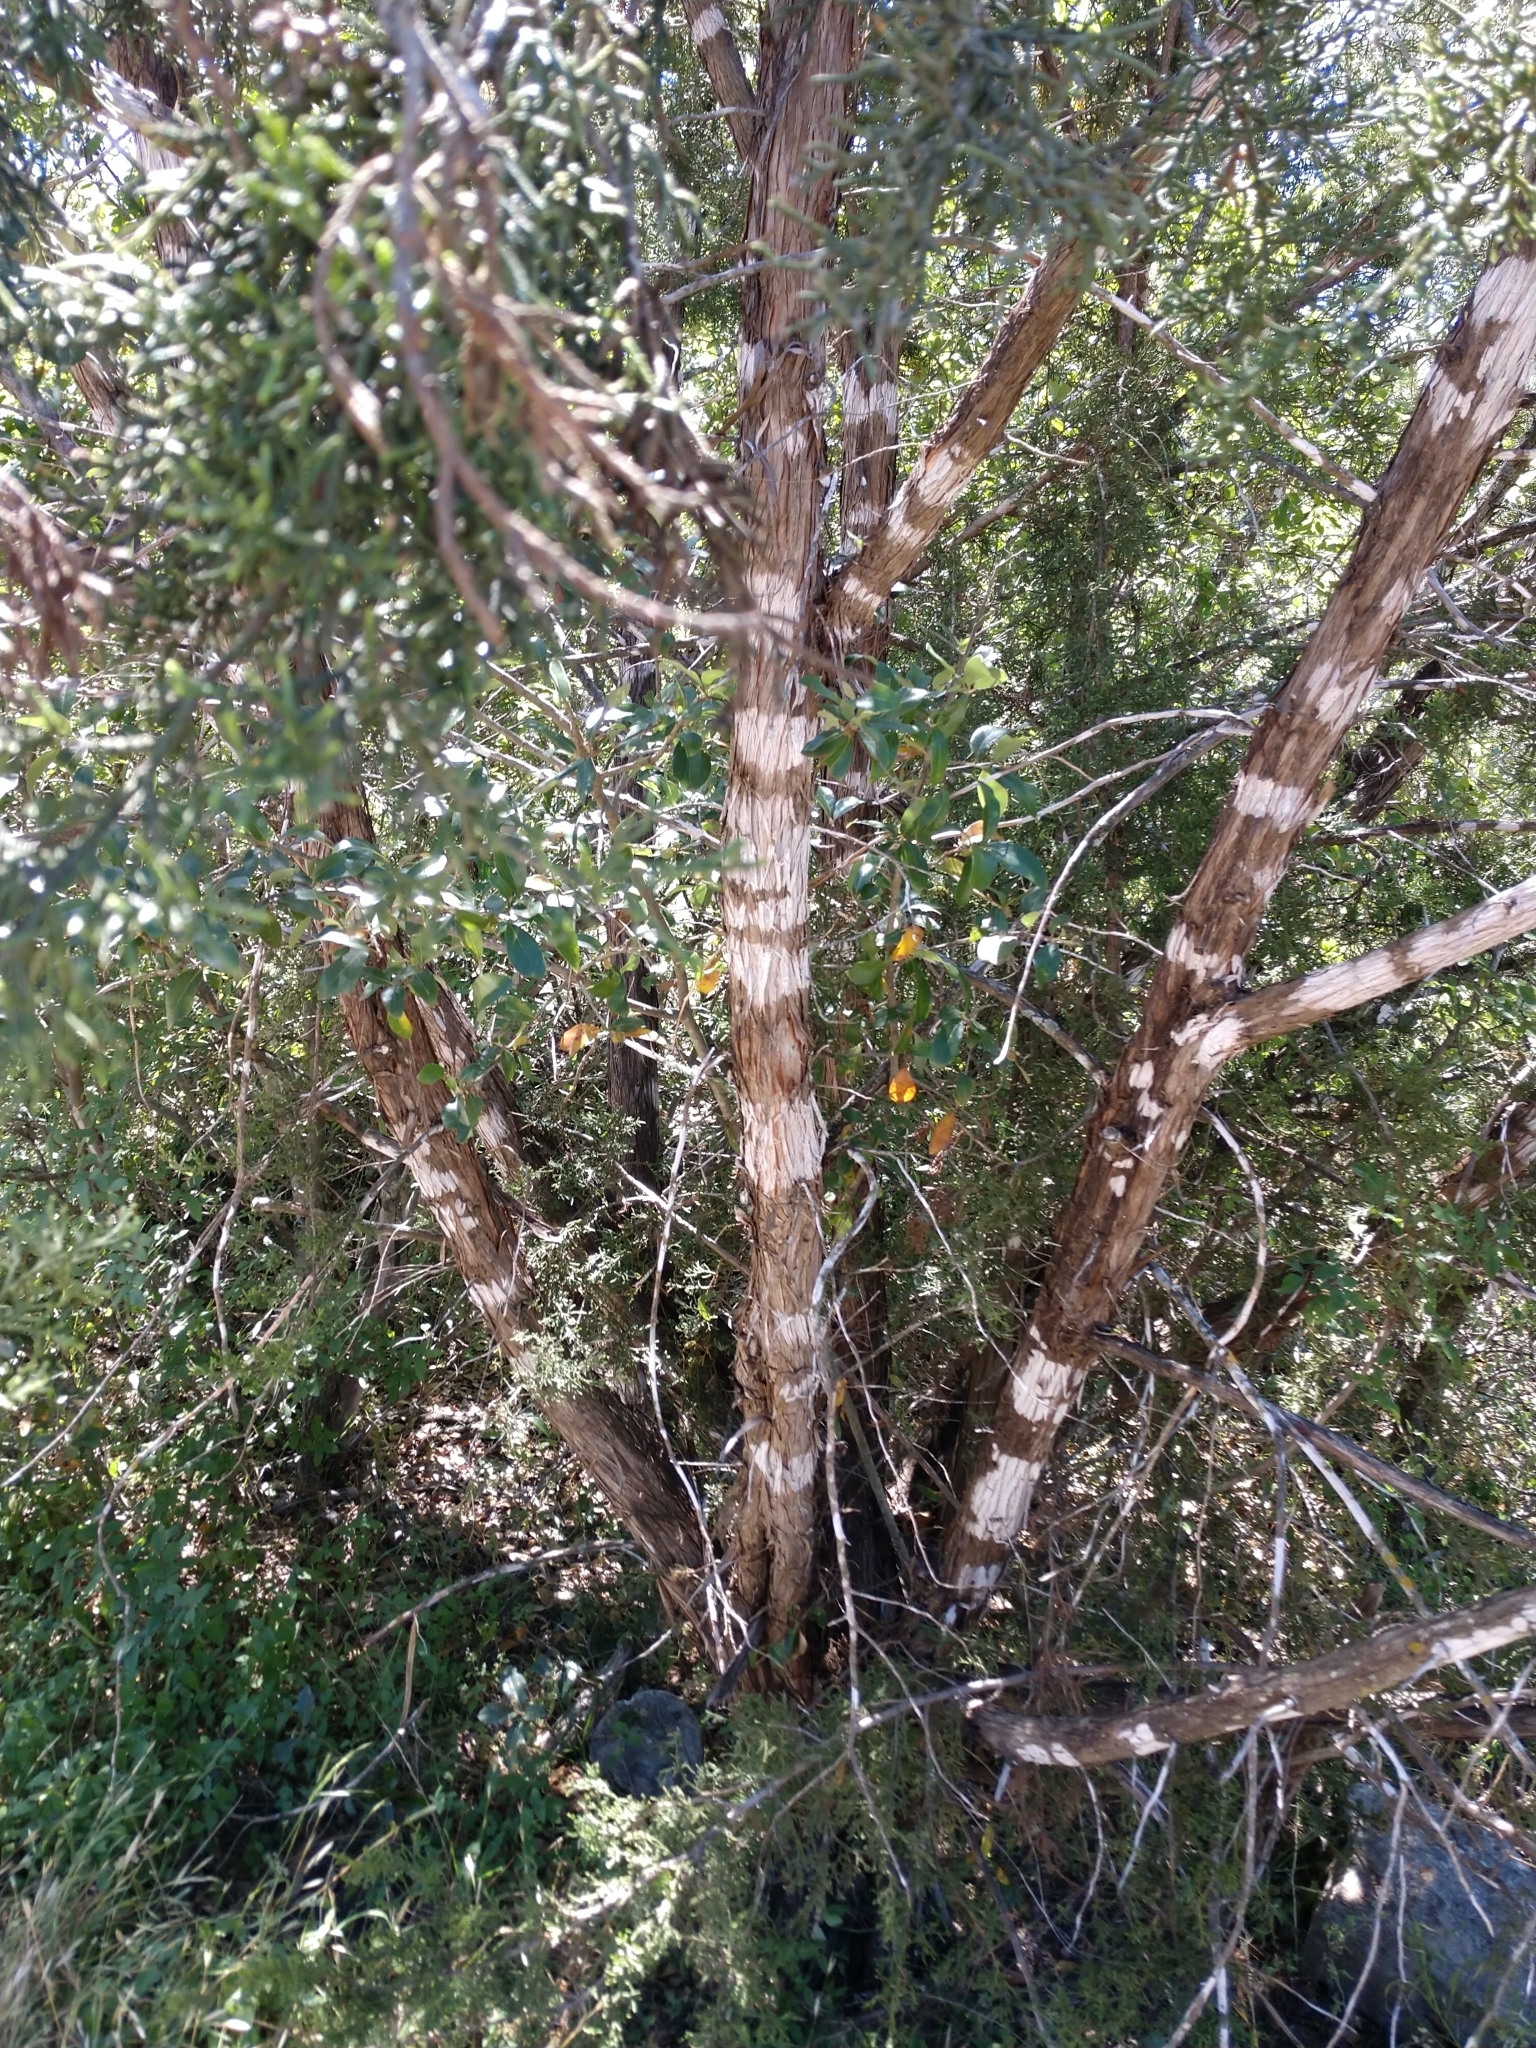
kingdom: Plantae
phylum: Tracheophyta
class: Pinopsida
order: Pinales
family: Cupressaceae
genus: Juniperus
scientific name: Juniperus ashei
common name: Mexican juniper
